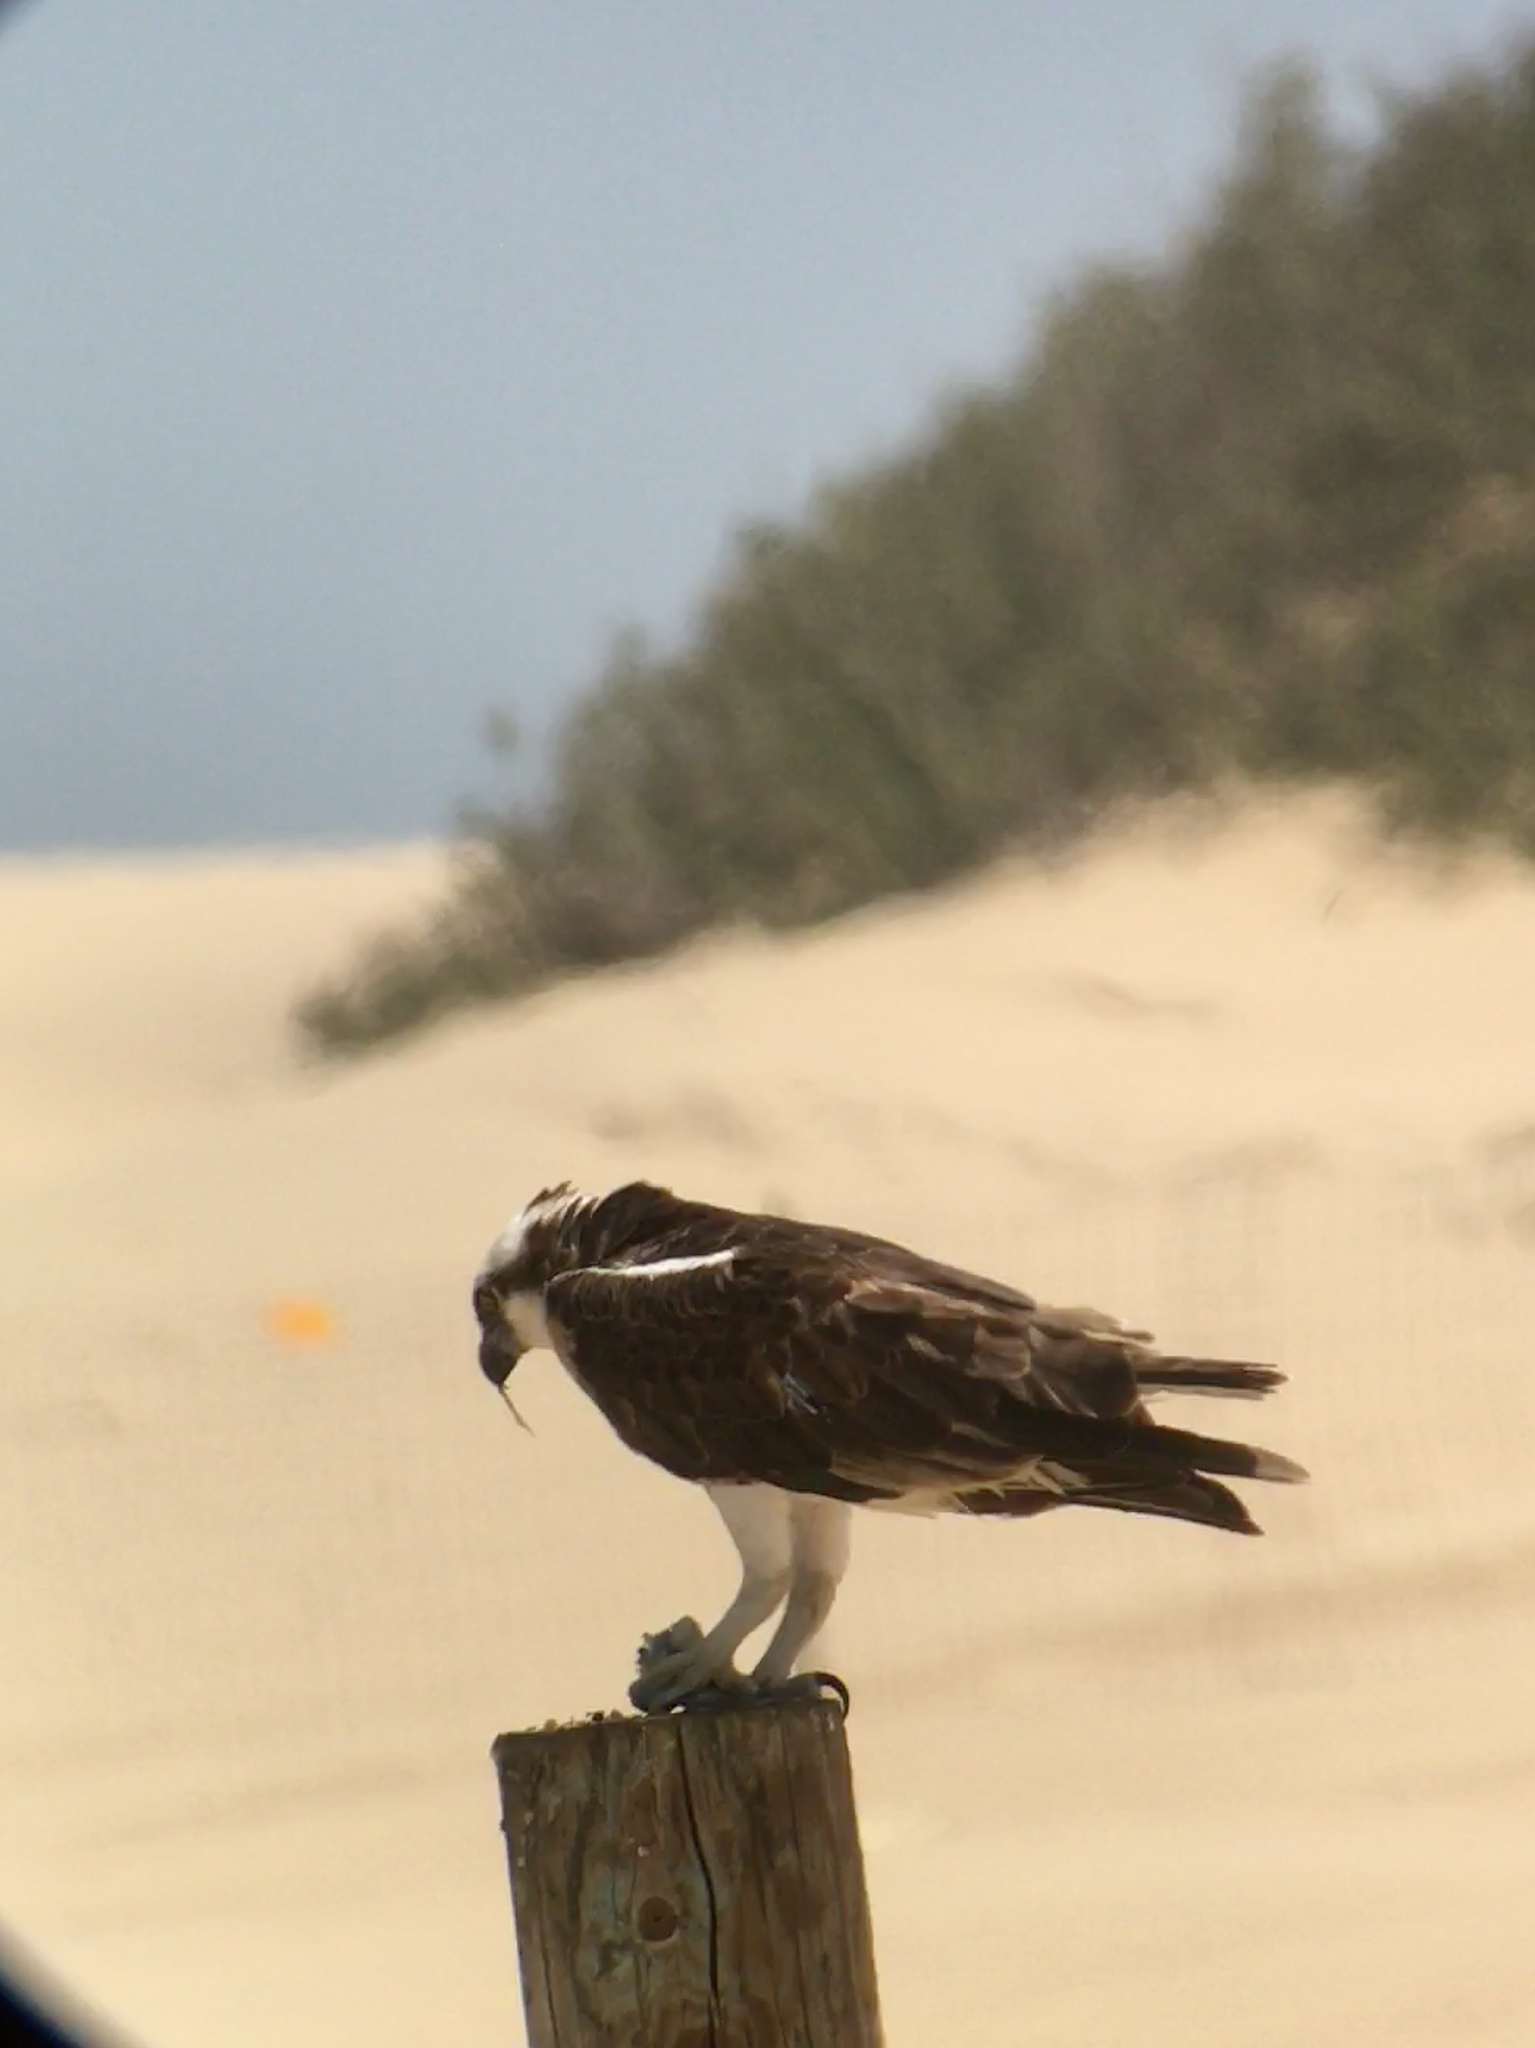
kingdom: Animalia
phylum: Chordata
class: Aves
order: Accipitriformes
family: Pandionidae
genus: Pandion
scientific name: Pandion haliaetus
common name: Osprey
